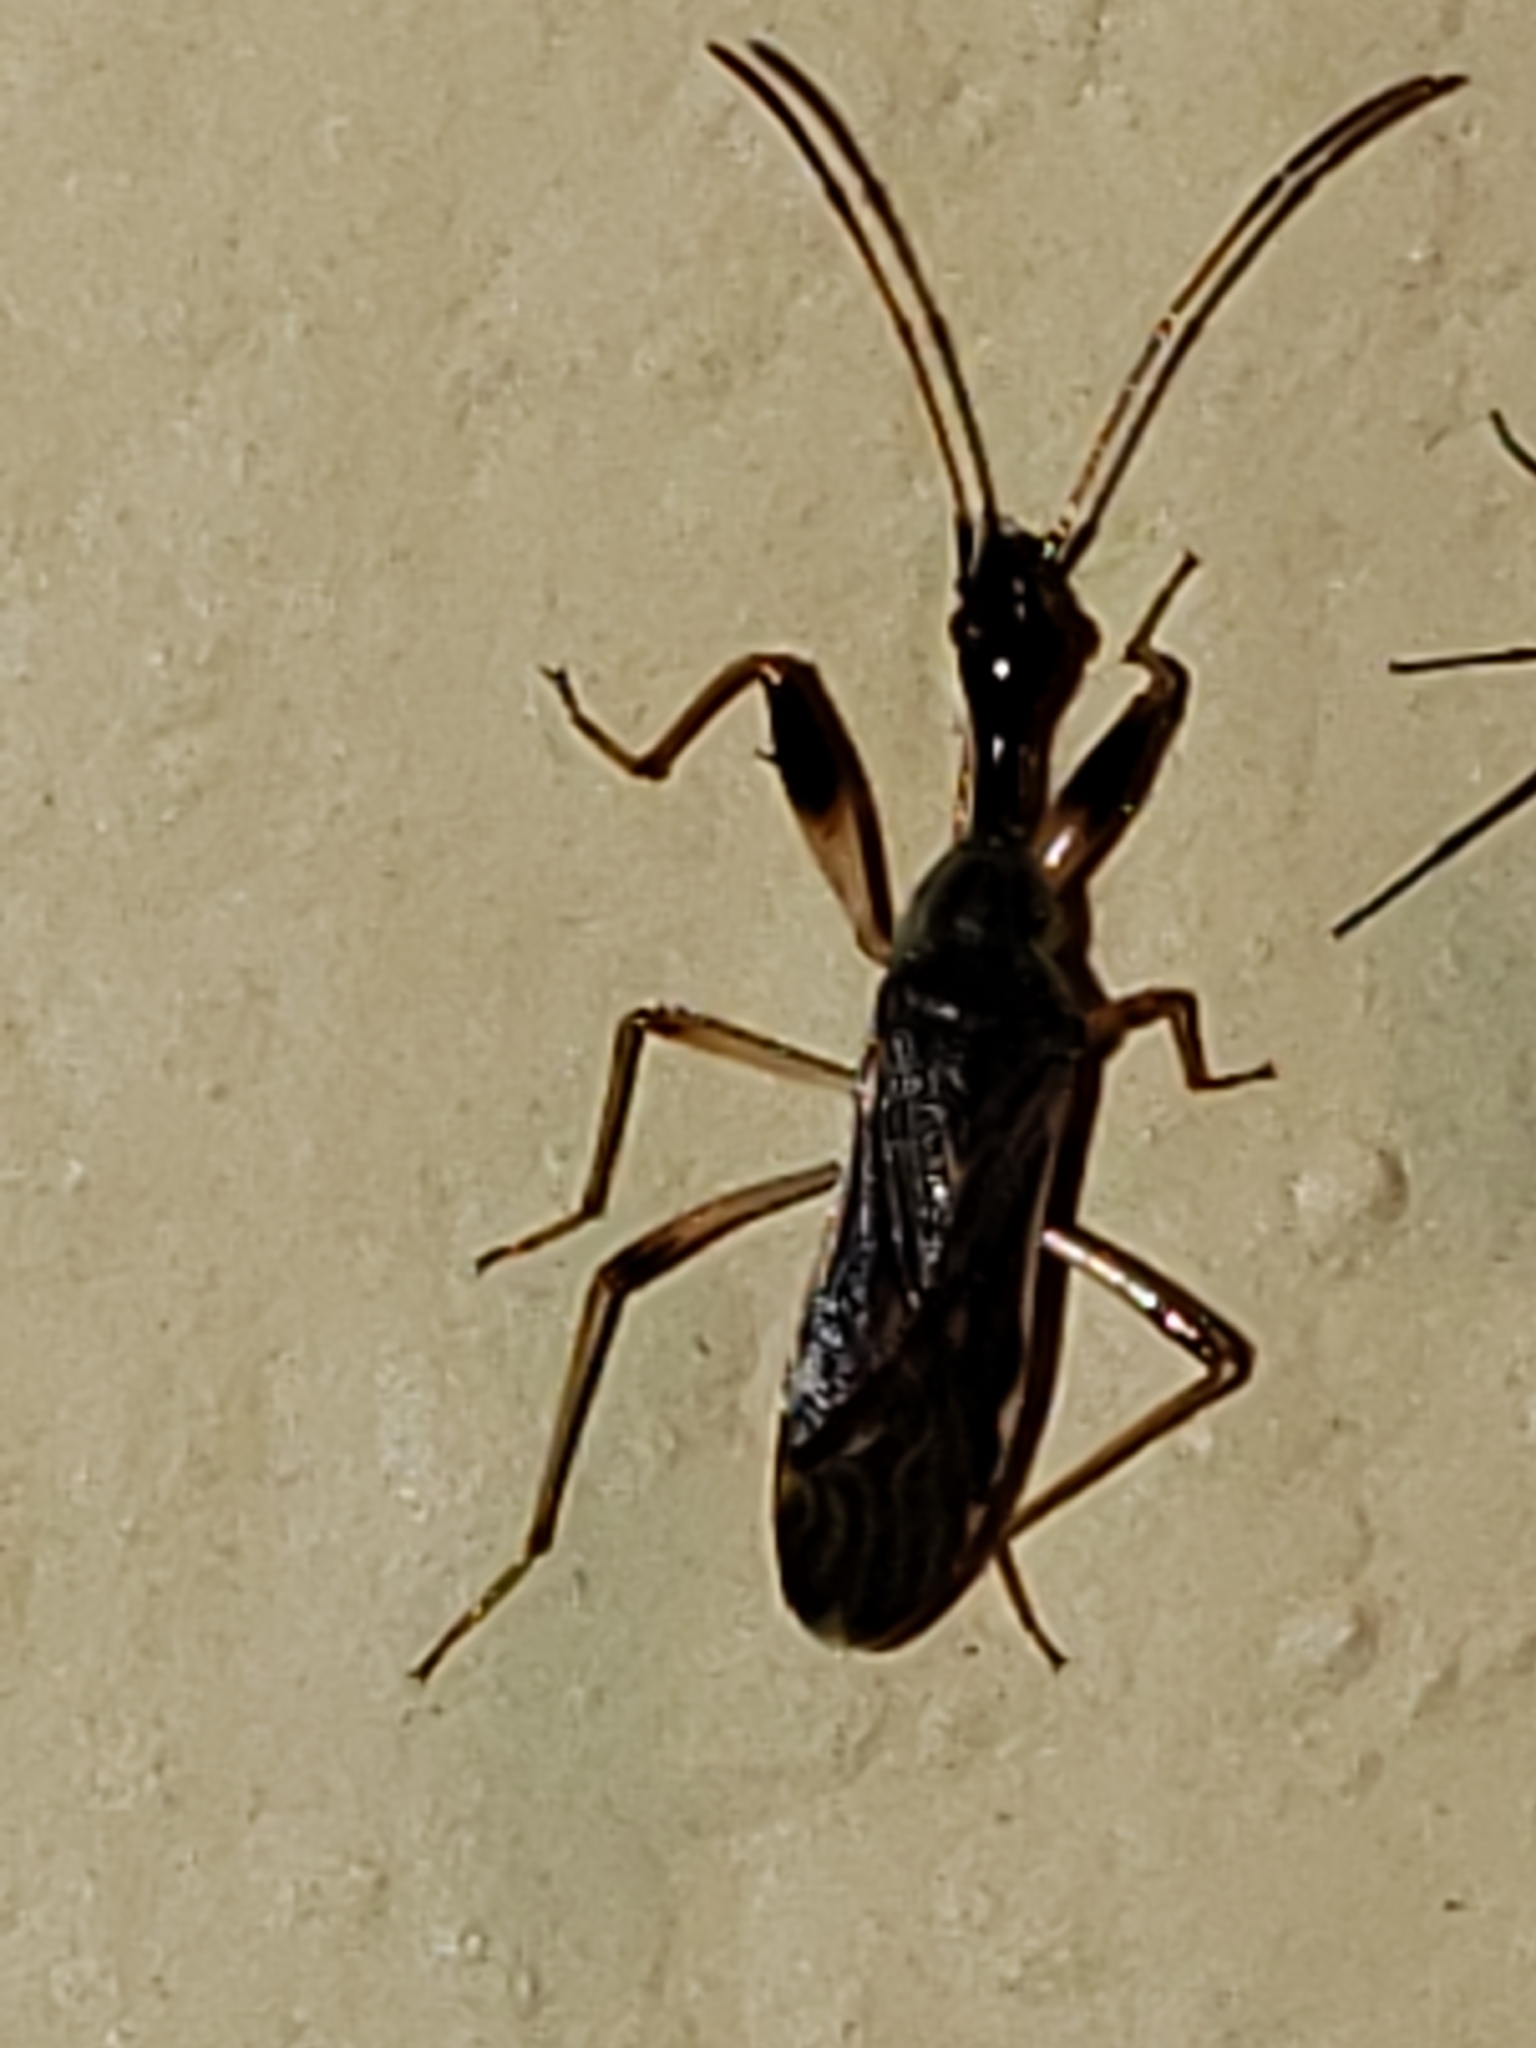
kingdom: Animalia
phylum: Arthropoda
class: Insecta
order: Hemiptera
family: Rhyparochromidae
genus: Myodocha
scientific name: Myodocha serripes
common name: Long-necked seed bug
